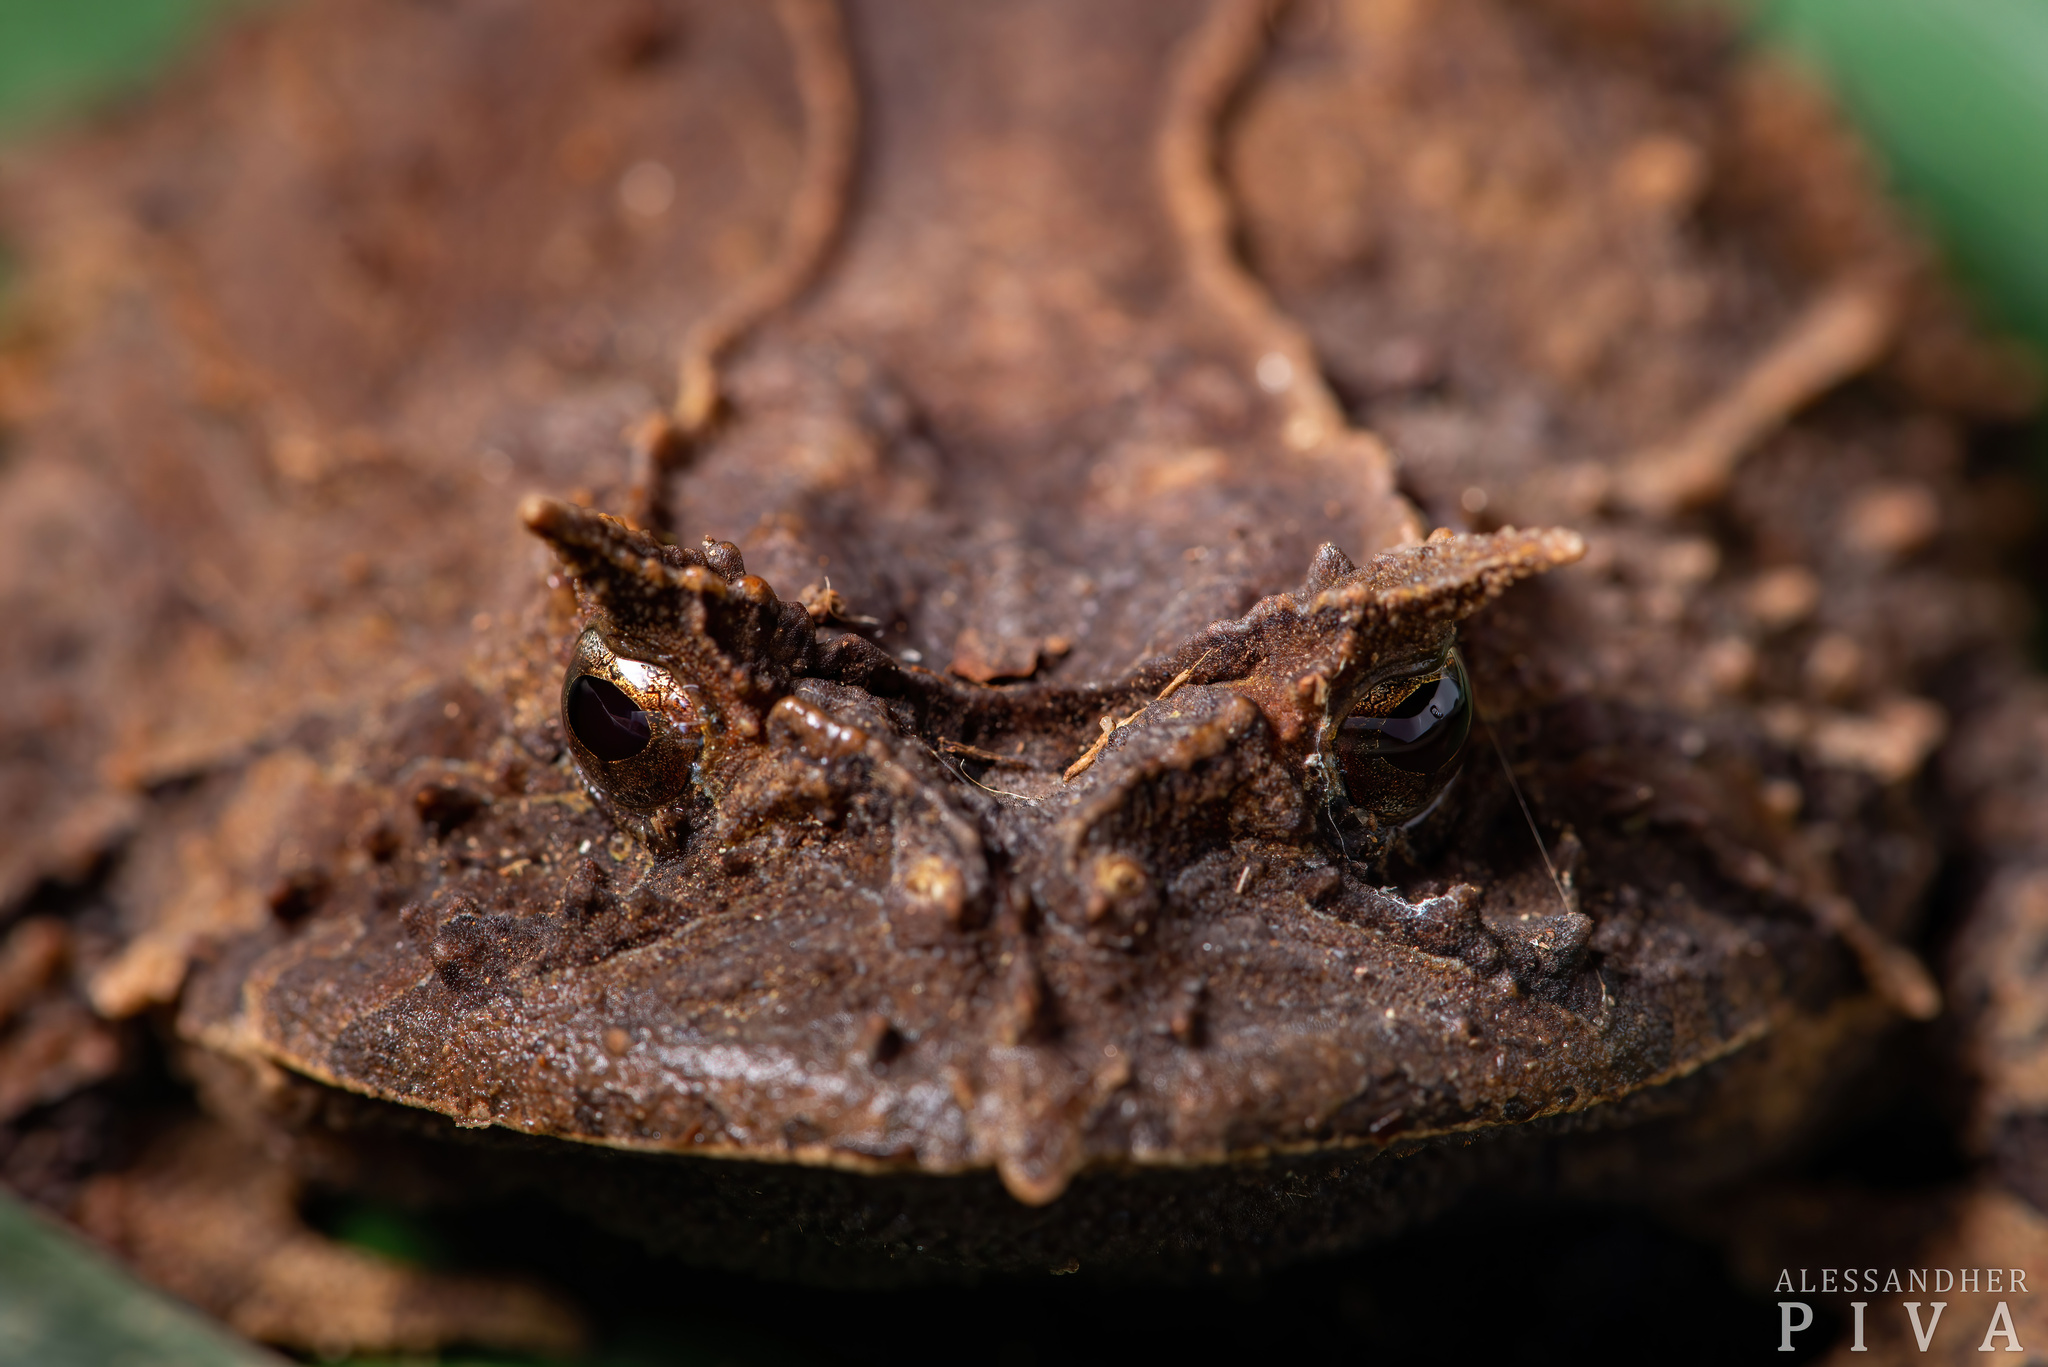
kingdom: Animalia
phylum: Chordata
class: Amphibia
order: Anura
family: Odontophrynidae
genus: Proceratophrys
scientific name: Proceratophrys subguttata
